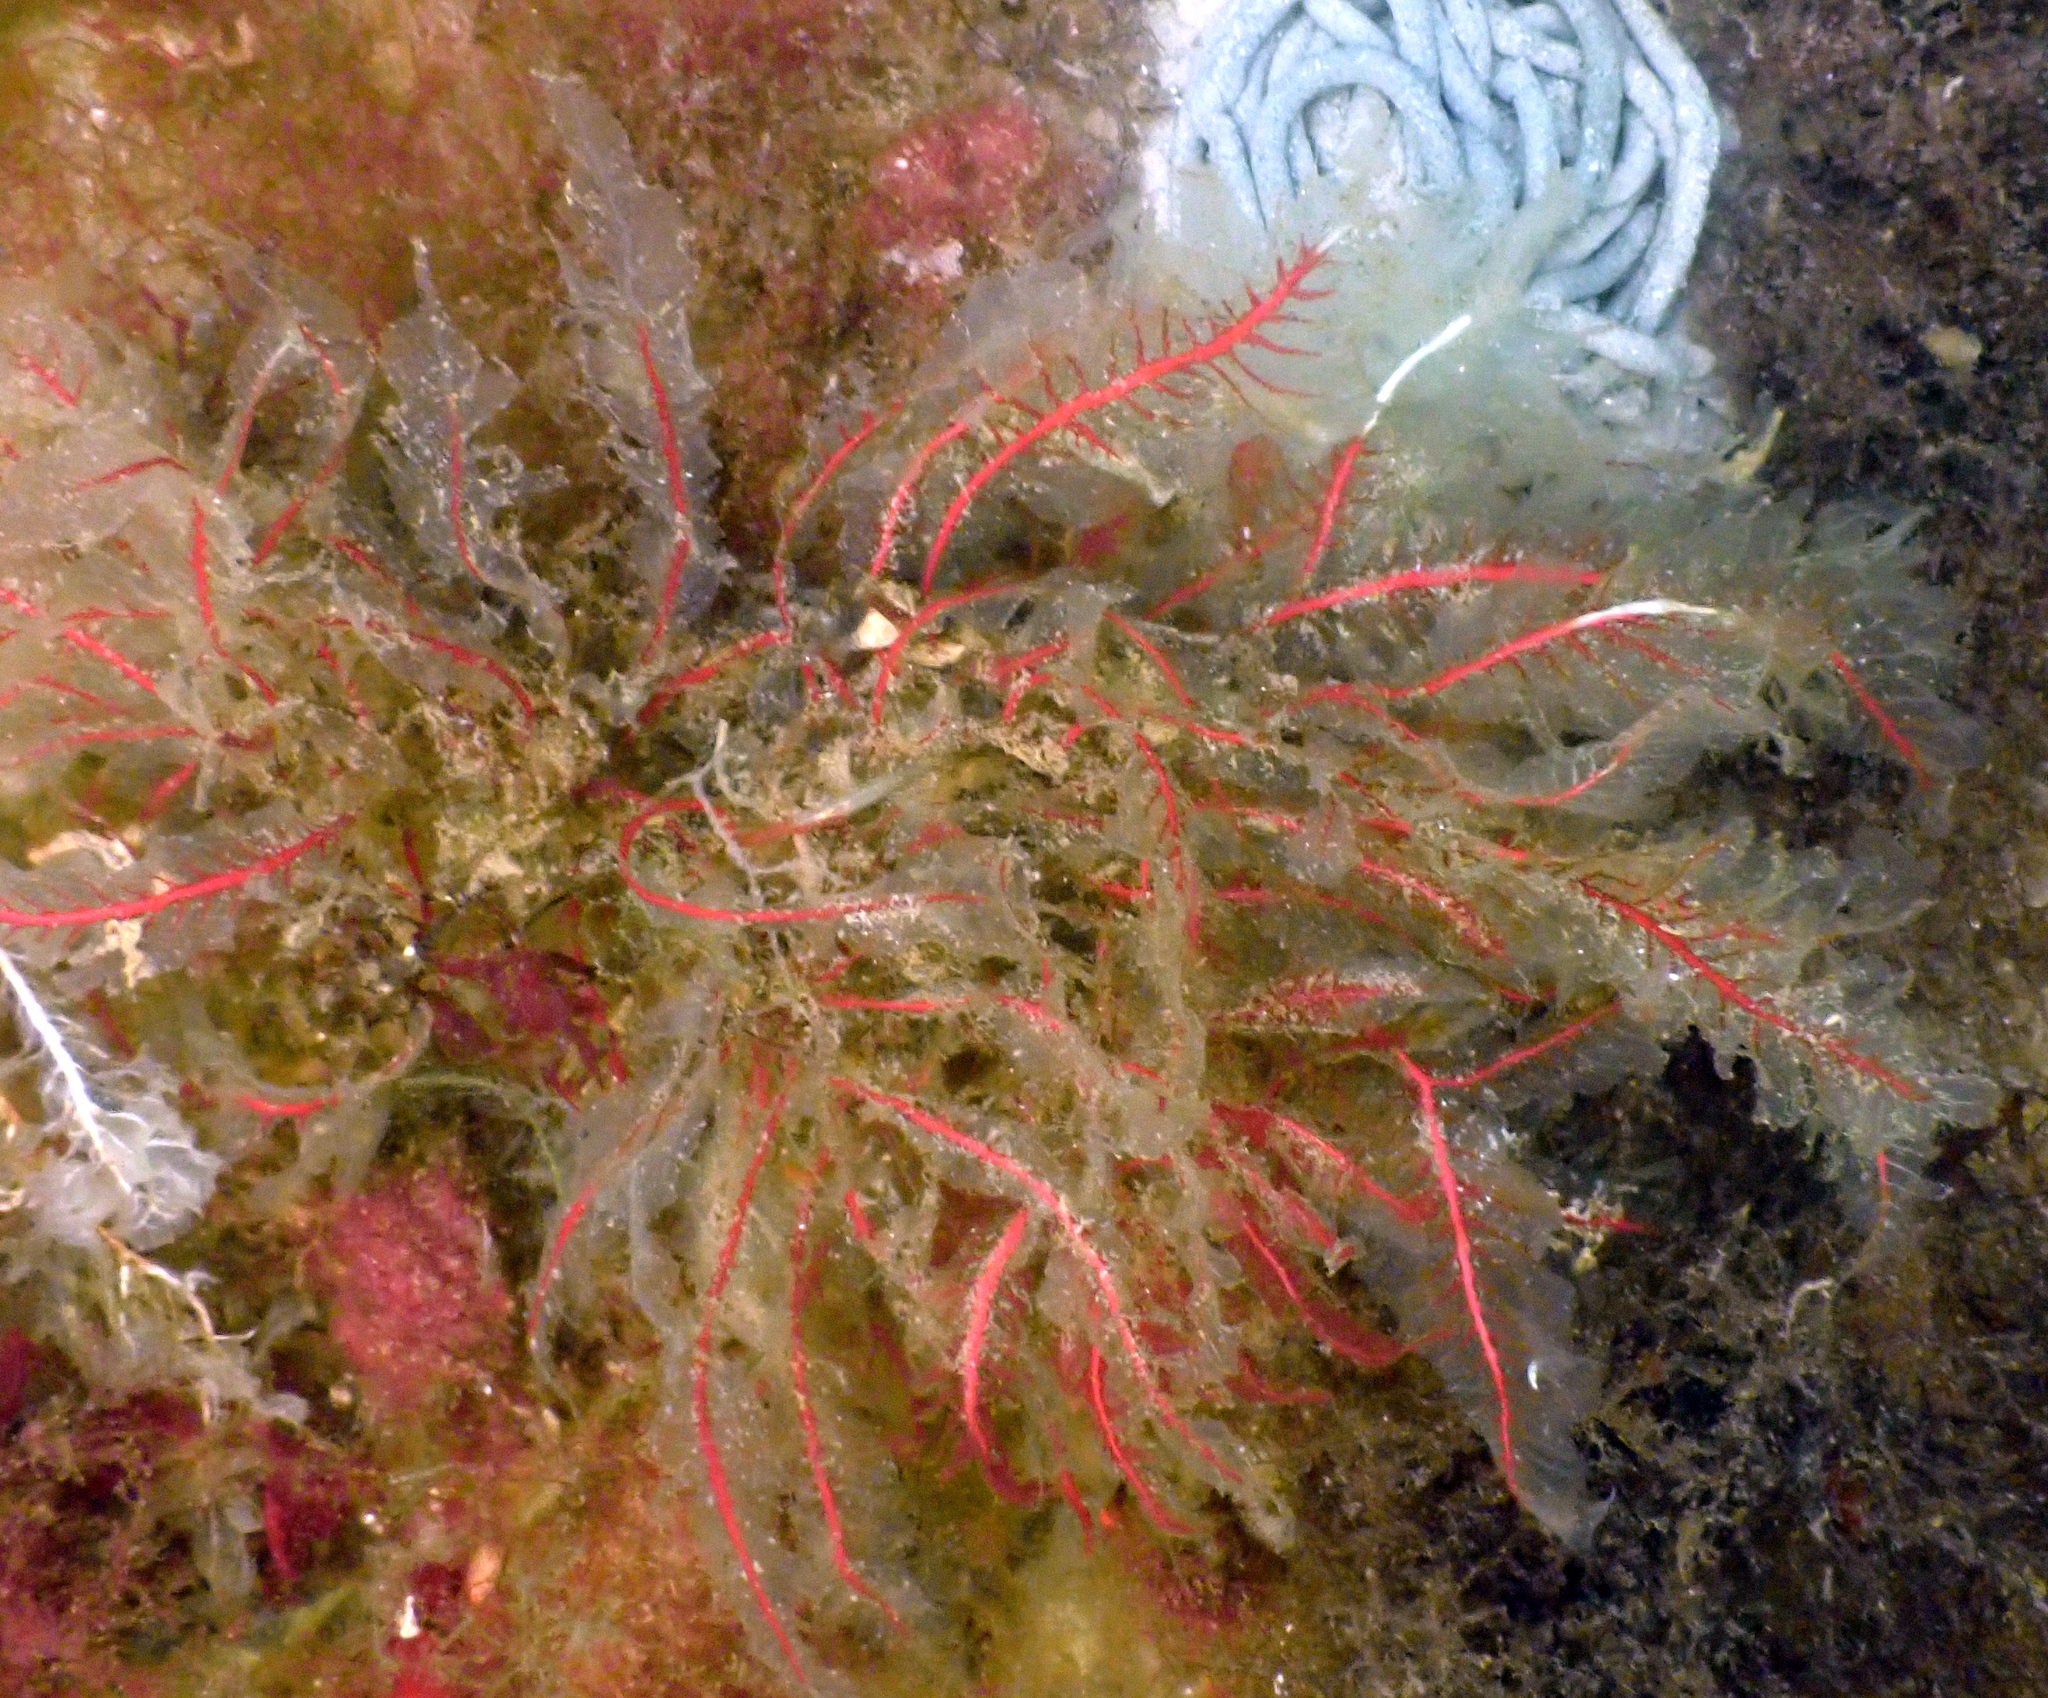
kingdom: Plantae
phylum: Rhodophyta
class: Florideophyceae
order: Ceramiales
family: Delesseriaceae
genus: Delesseria
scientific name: Delesseria sanguinea
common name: Sea beech
